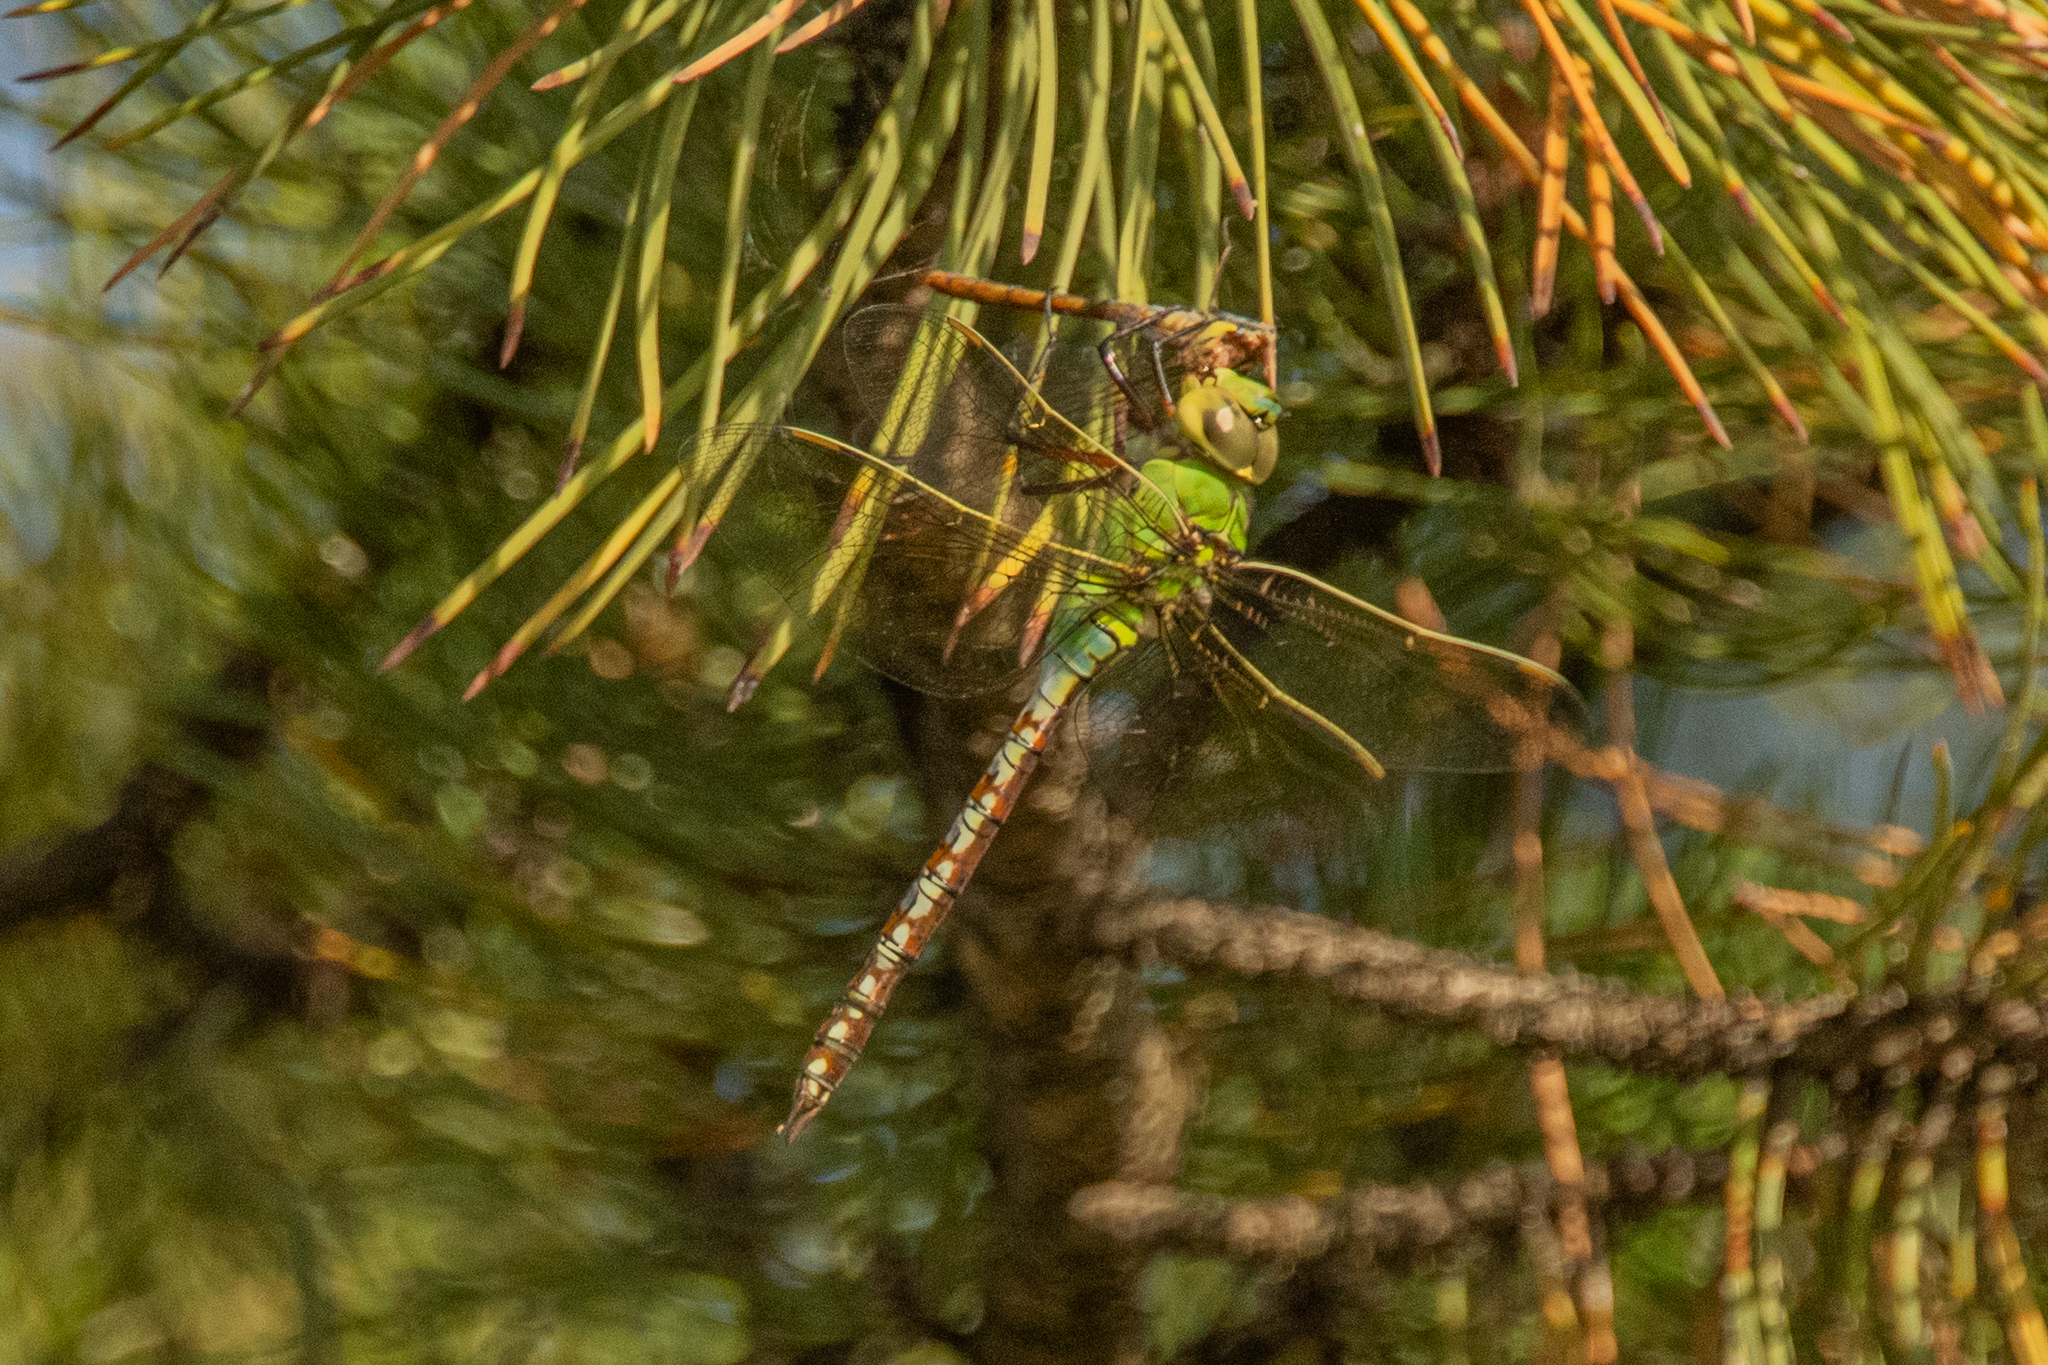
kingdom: Animalia
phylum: Arthropoda
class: Insecta
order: Odonata
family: Aeshnidae
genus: Anax
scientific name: Anax imperator
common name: Emperor dragonfly
